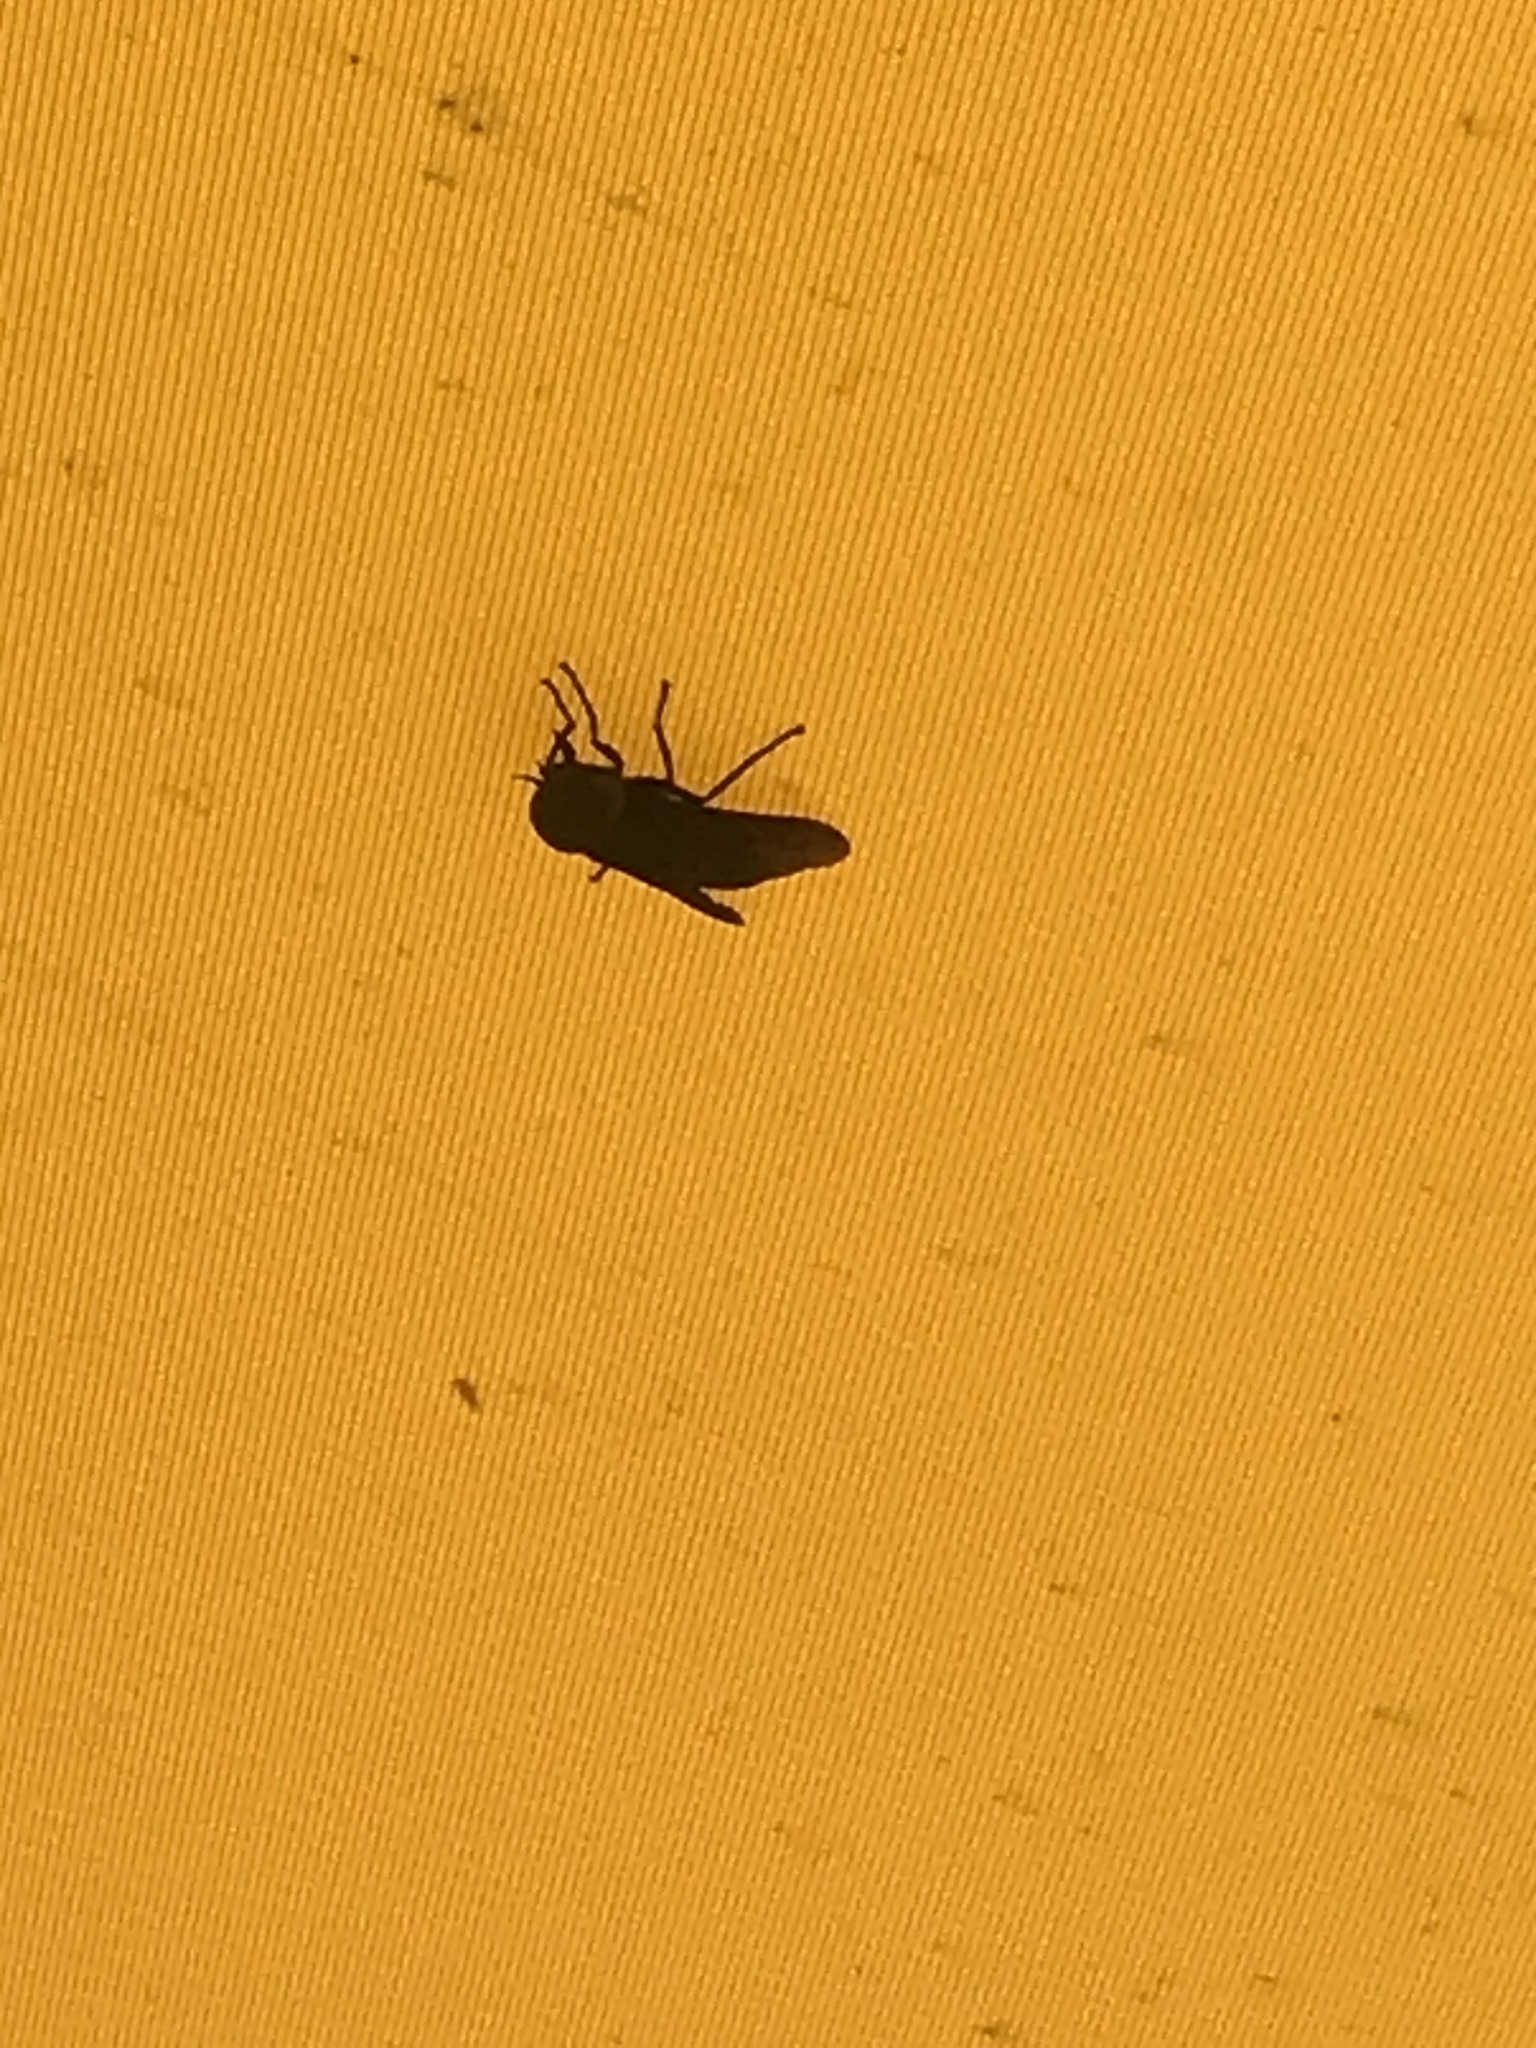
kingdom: Animalia
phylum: Arthropoda
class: Insecta
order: Diptera
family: Tabanidae
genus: Tabanus
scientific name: Tabanus atratus
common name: Black horse fly
